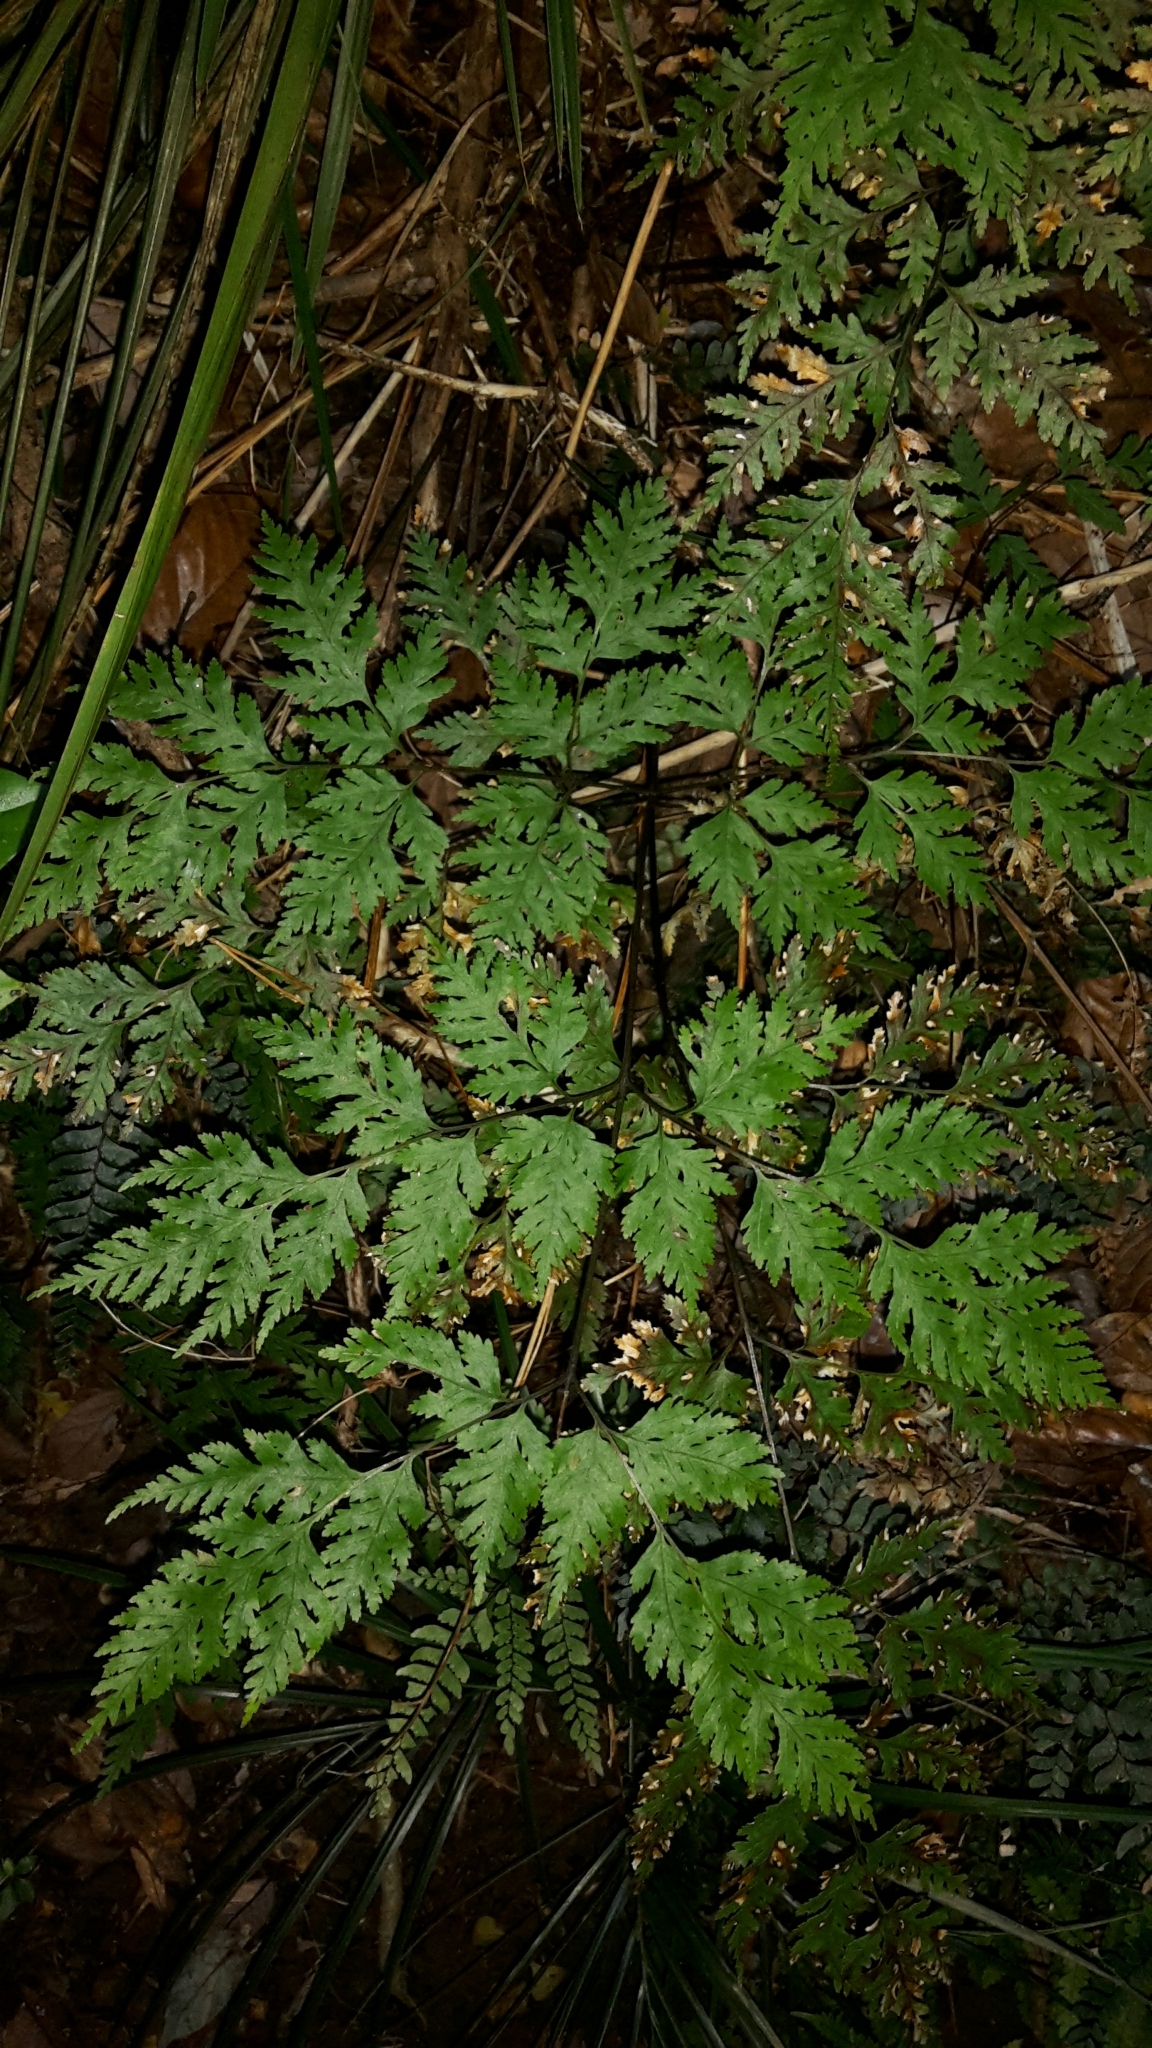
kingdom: Plantae
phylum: Tracheophyta
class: Polypodiopsida
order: Polypodiales
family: Pteridaceae
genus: Pteris
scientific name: Pteris macilenta
